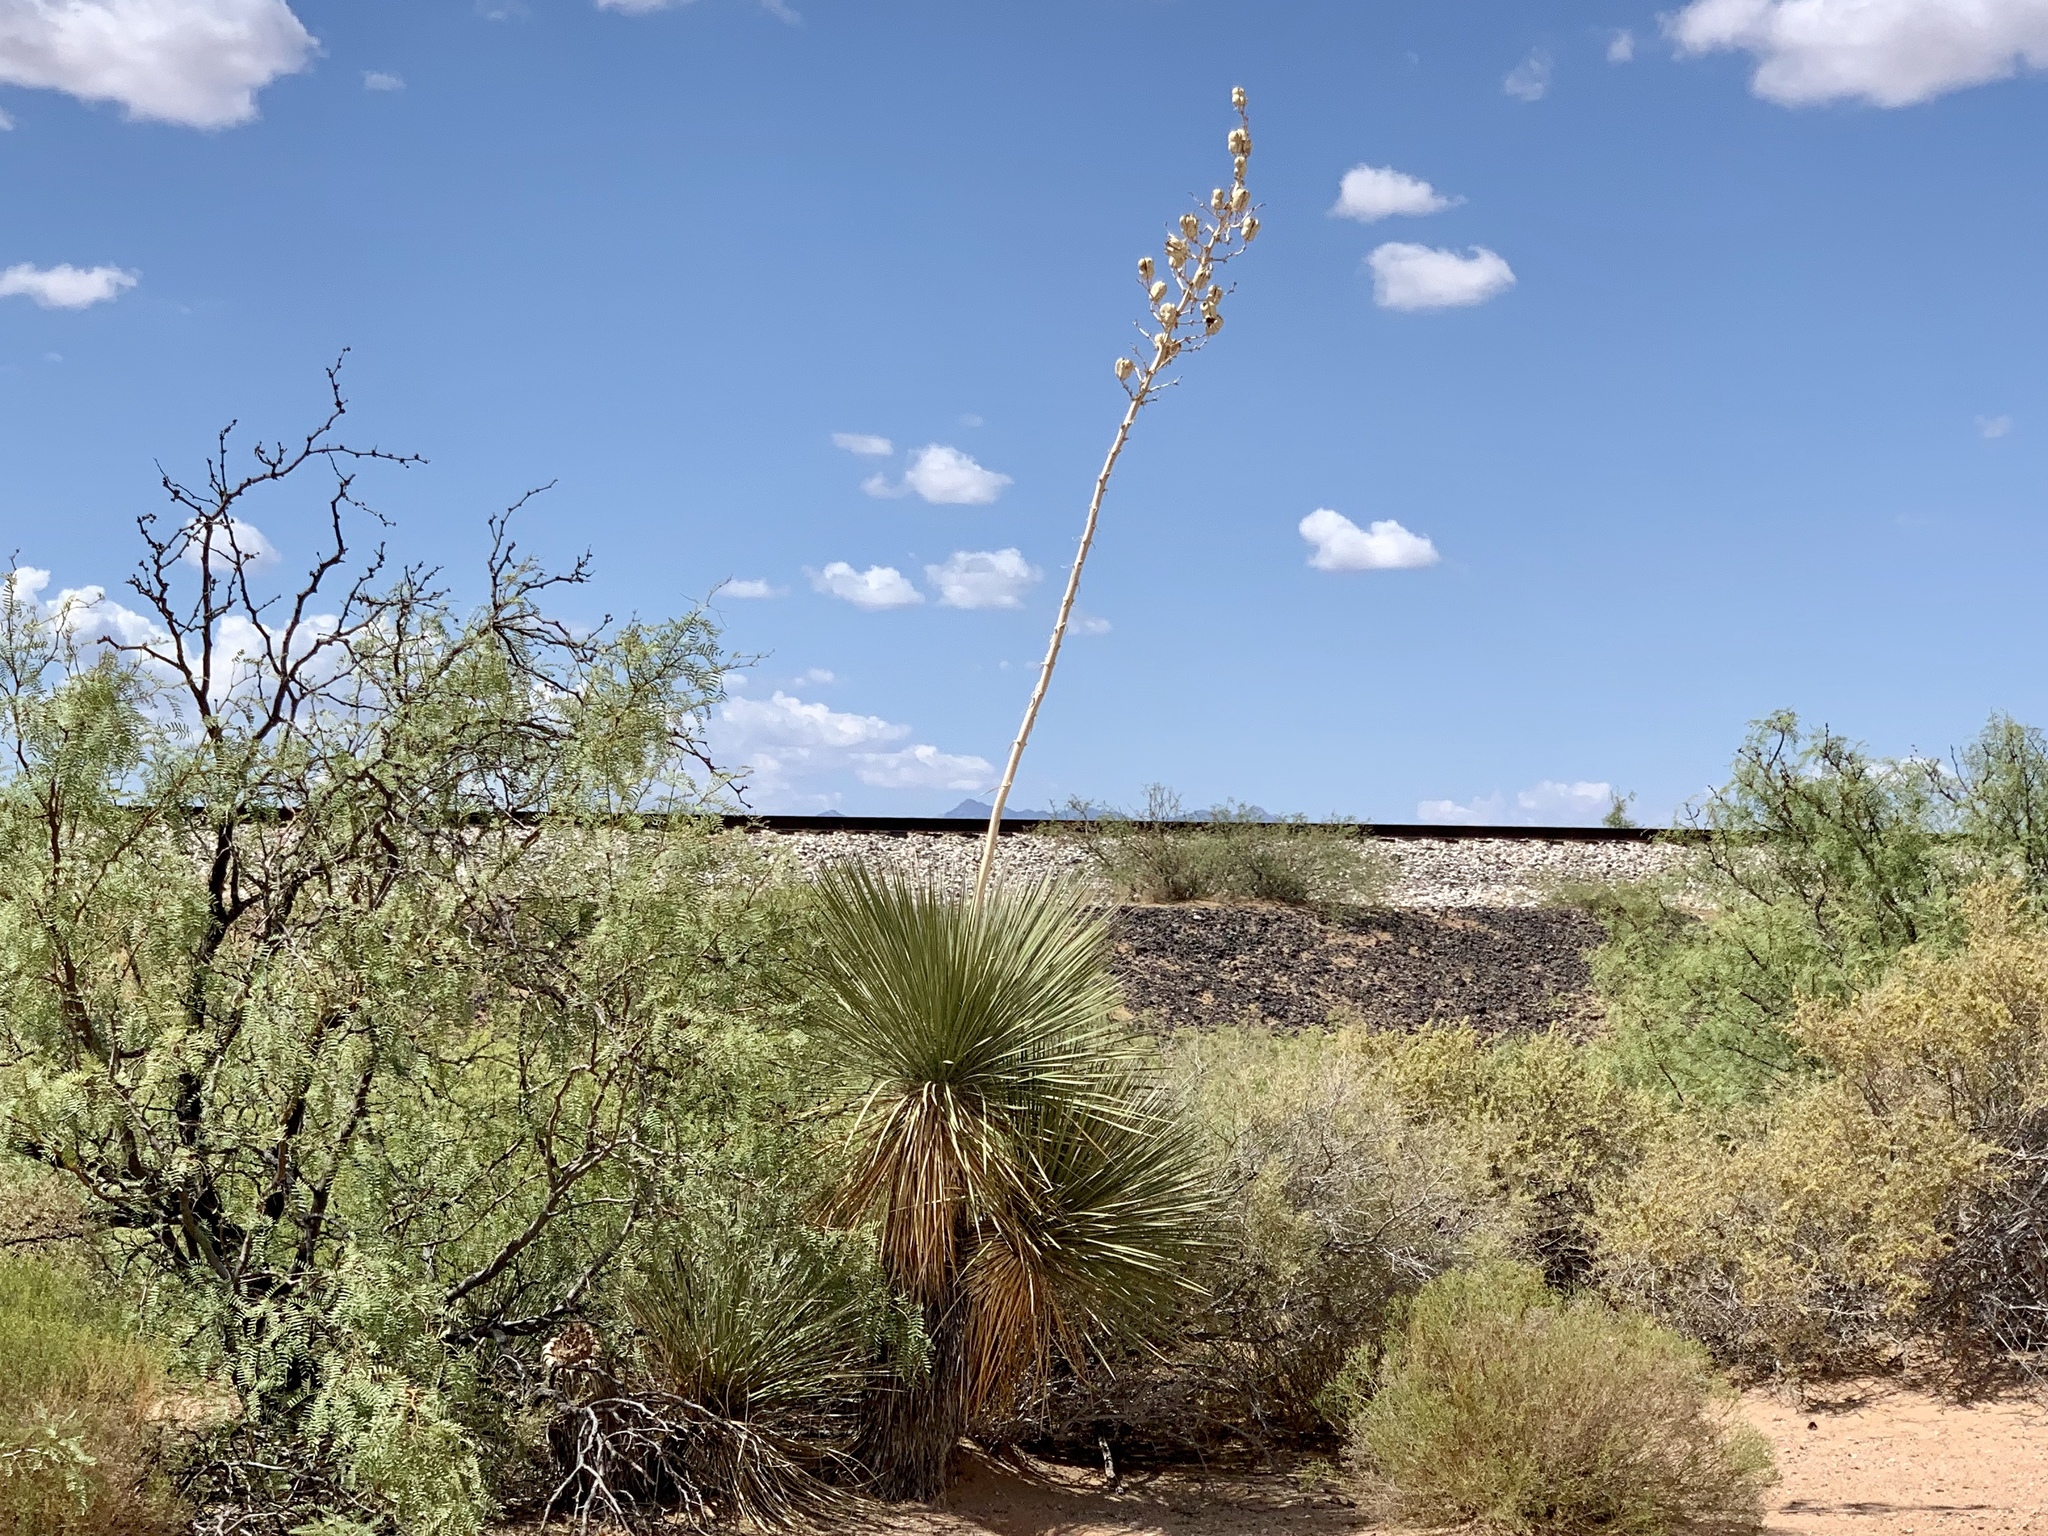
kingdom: Plantae
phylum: Tracheophyta
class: Liliopsida
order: Asparagales
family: Asparagaceae
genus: Yucca
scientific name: Yucca elata
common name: Palmella
